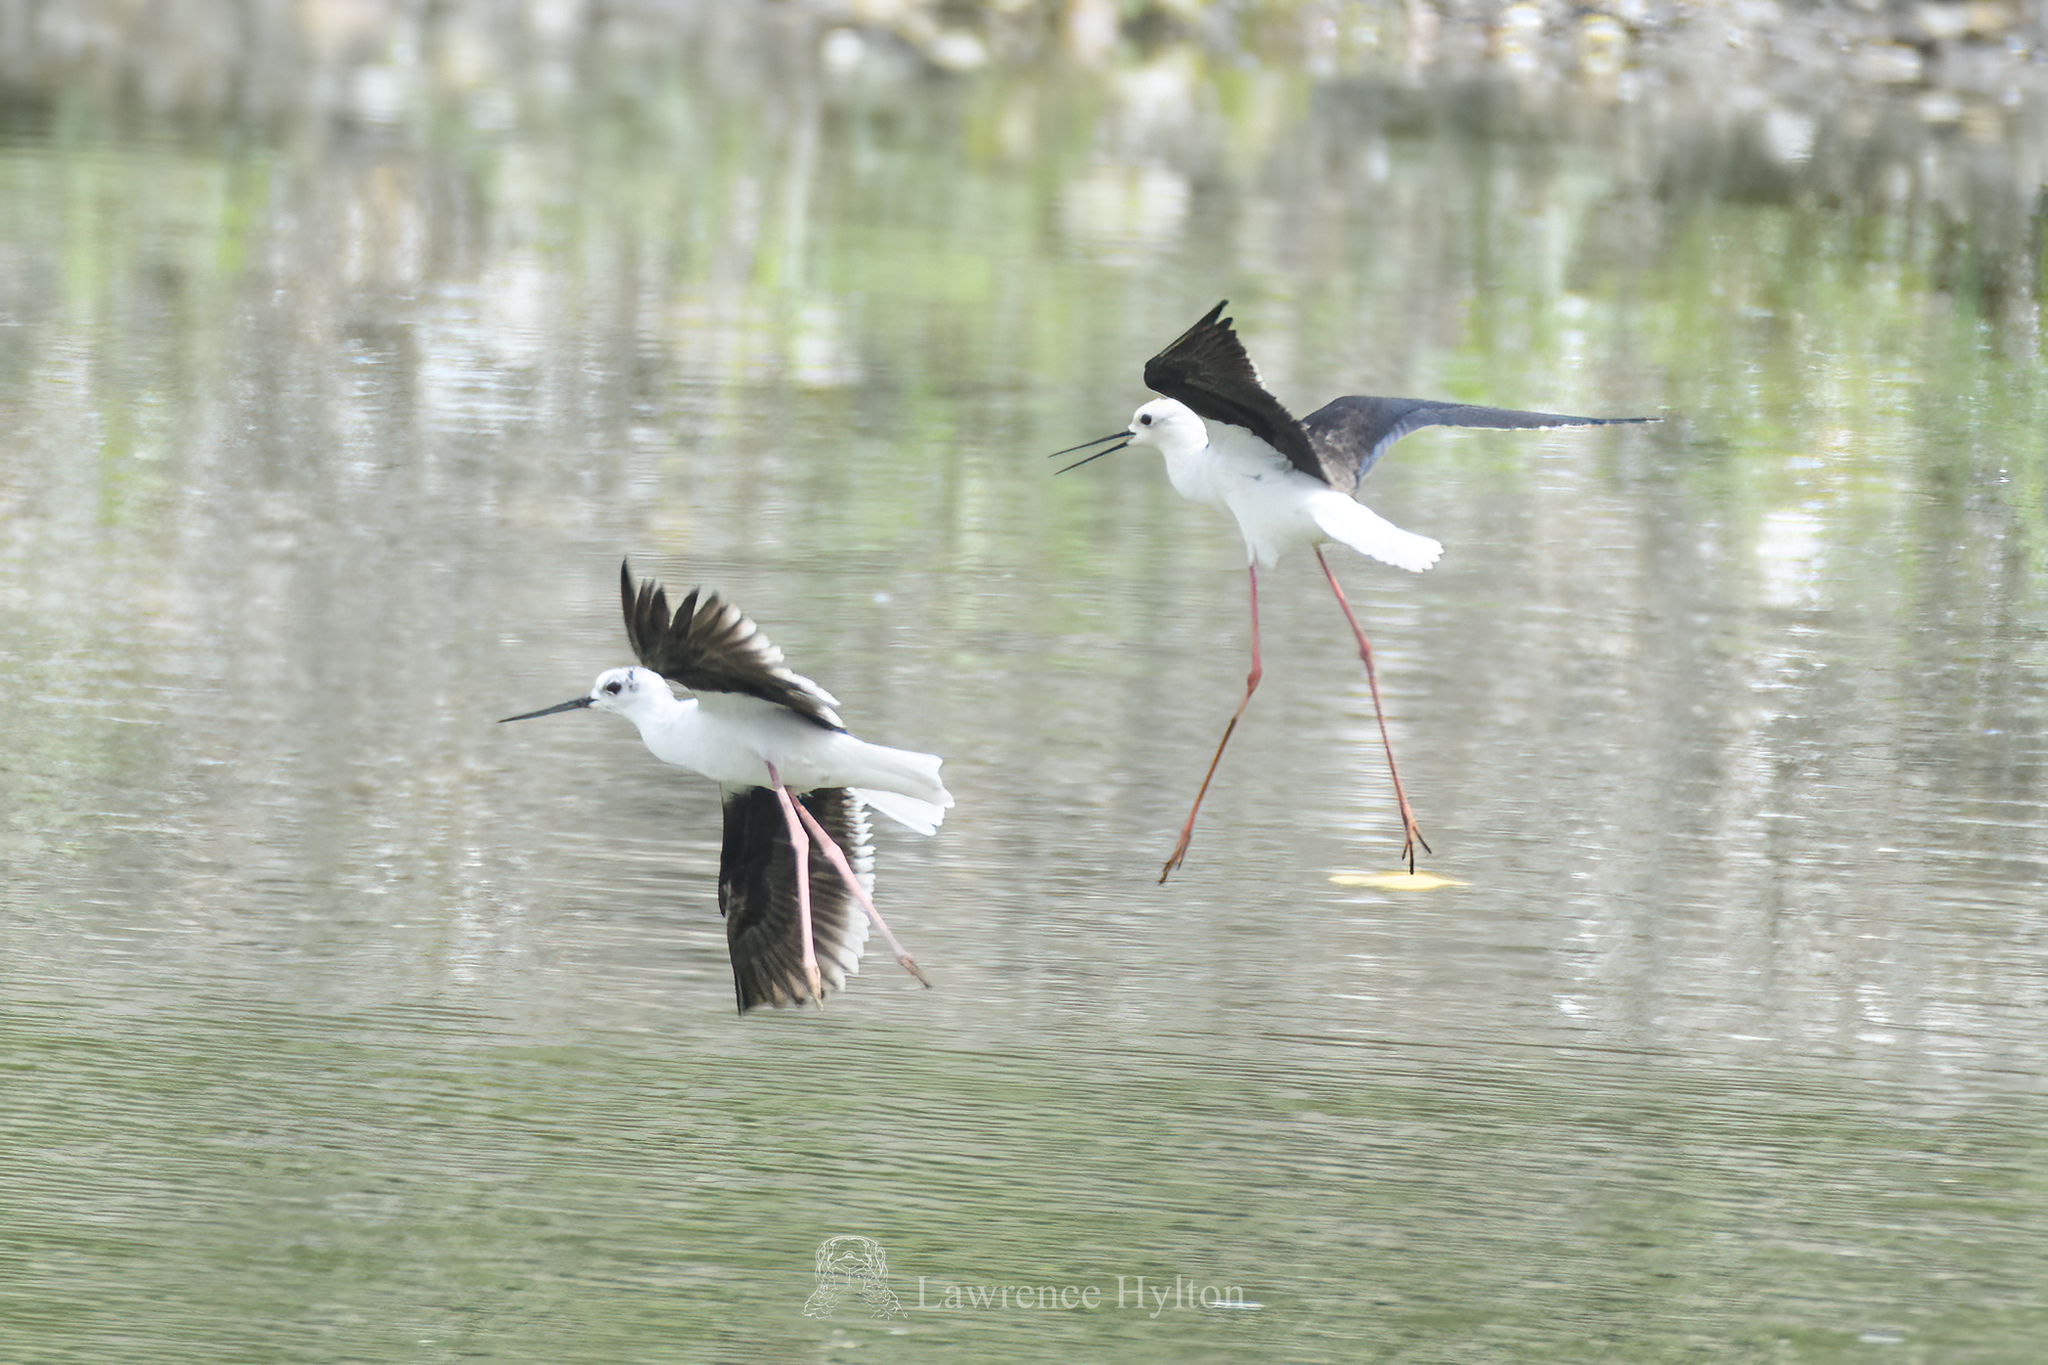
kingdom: Animalia
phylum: Chordata
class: Aves
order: Charadriiformes
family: Recurvirostridae
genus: Himantopus
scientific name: Himantopus himantopus
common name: Black-winged stilt
